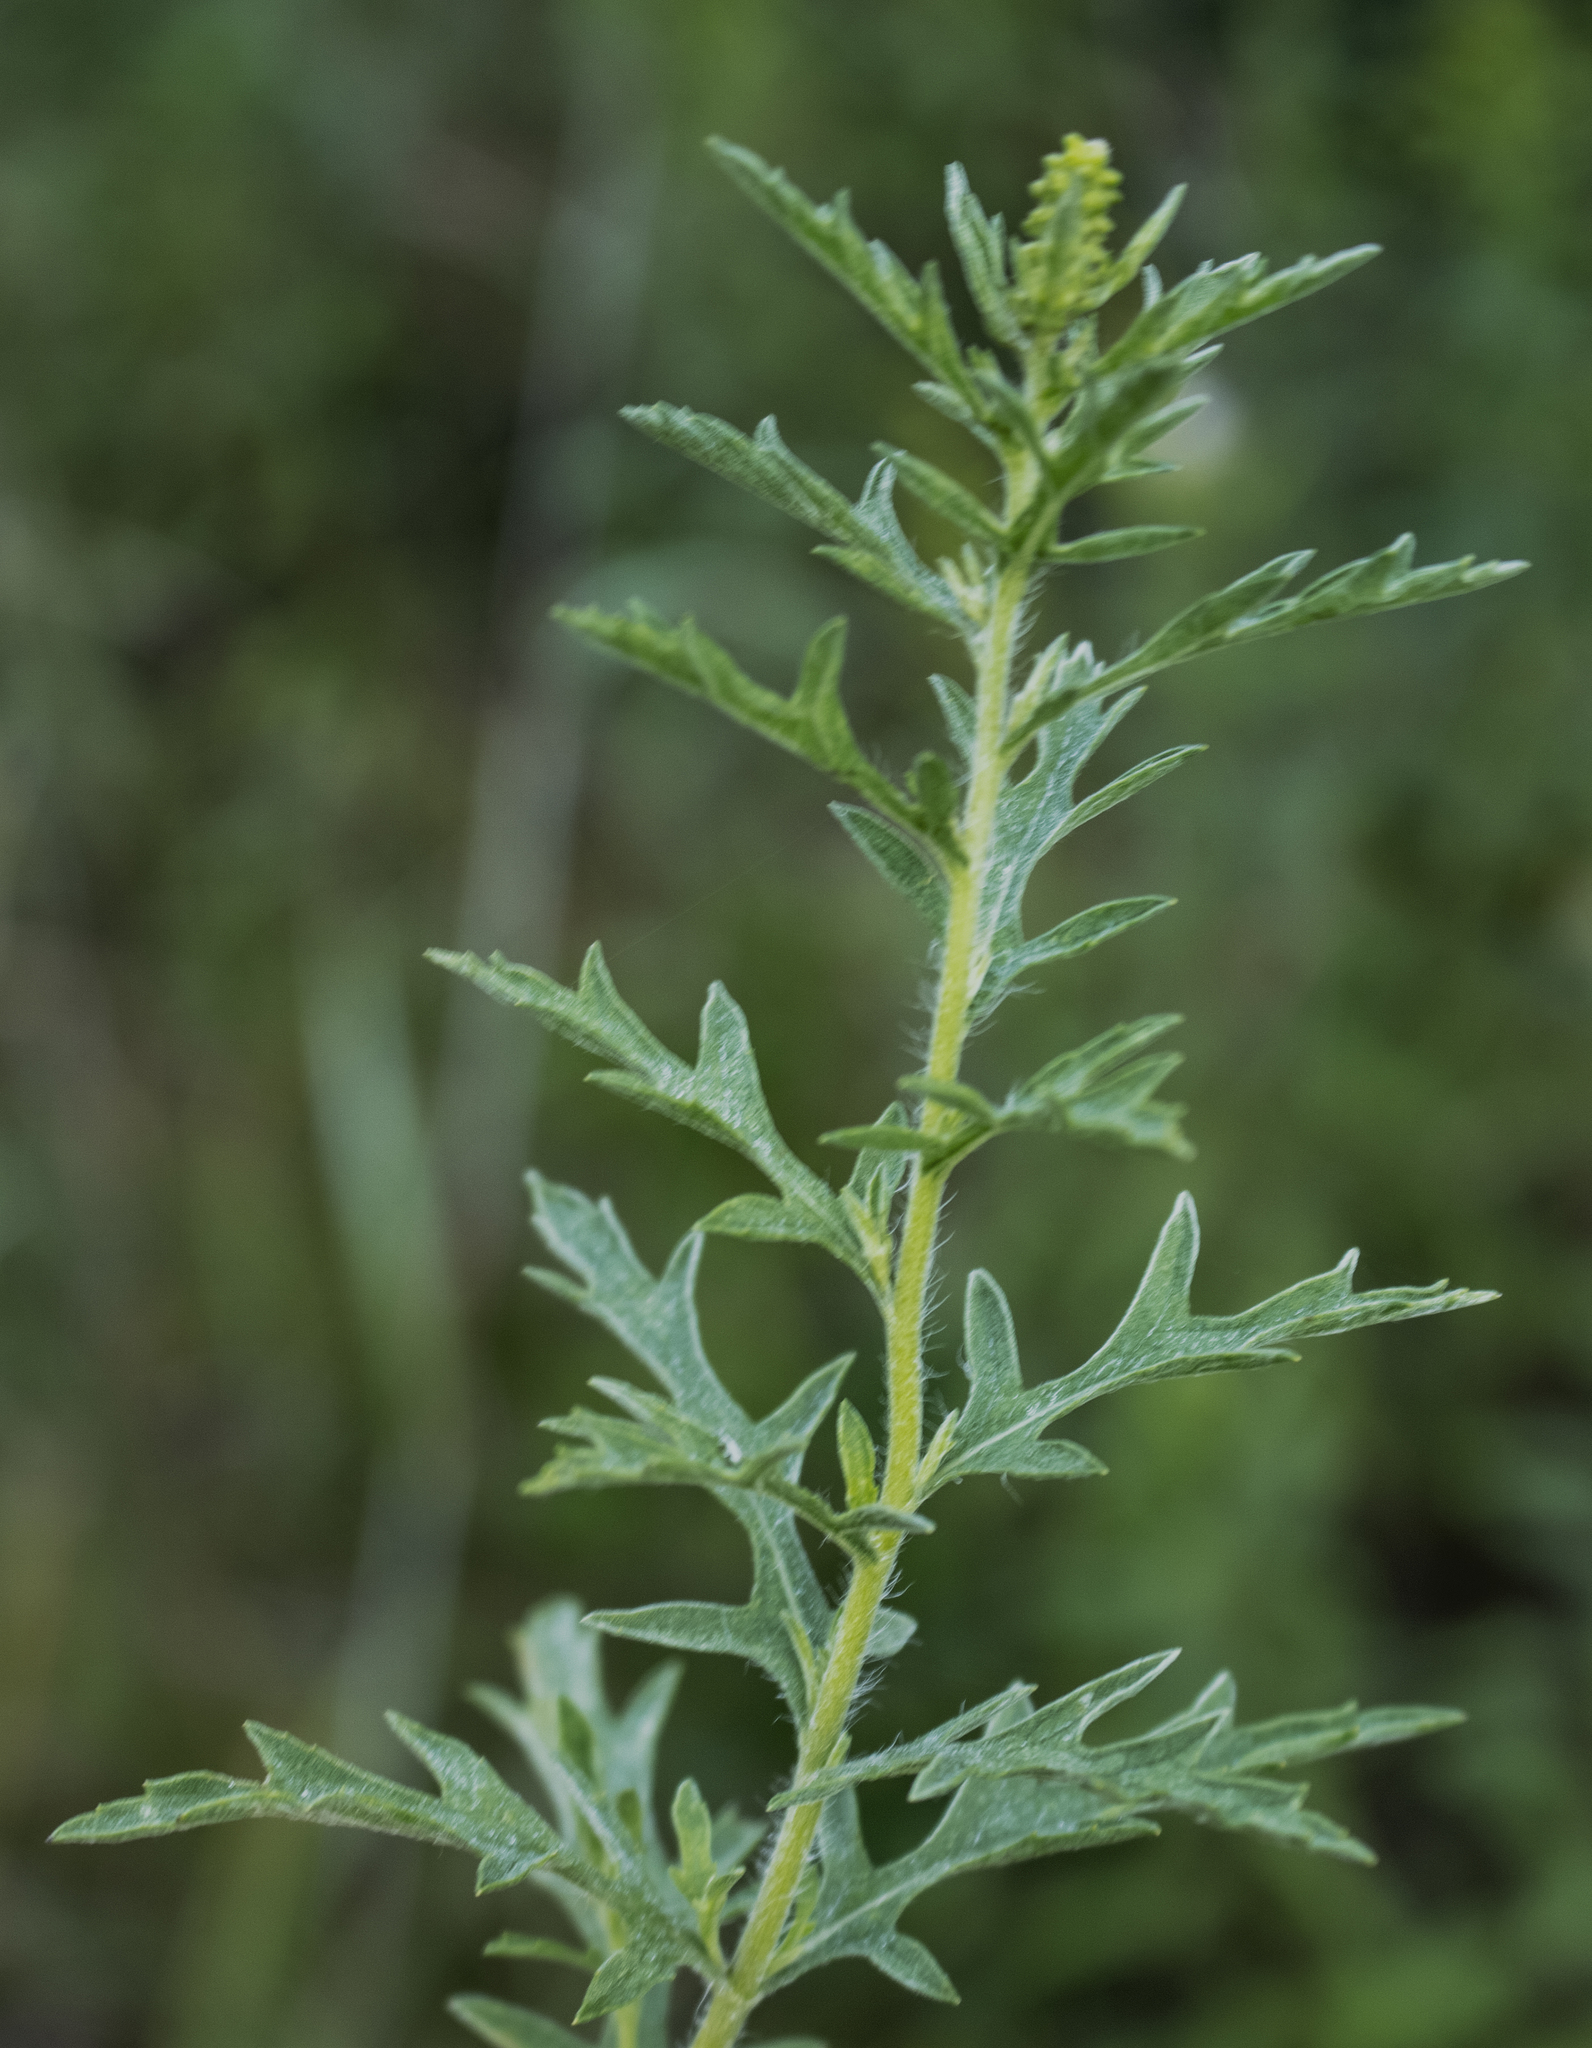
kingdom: Plantae
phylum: Tracheophyta
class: Magnoliopsida
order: Asterales
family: Asteraceae
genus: Ambrosia
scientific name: Ambrosia psilostachya
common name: Perennial ragweed
